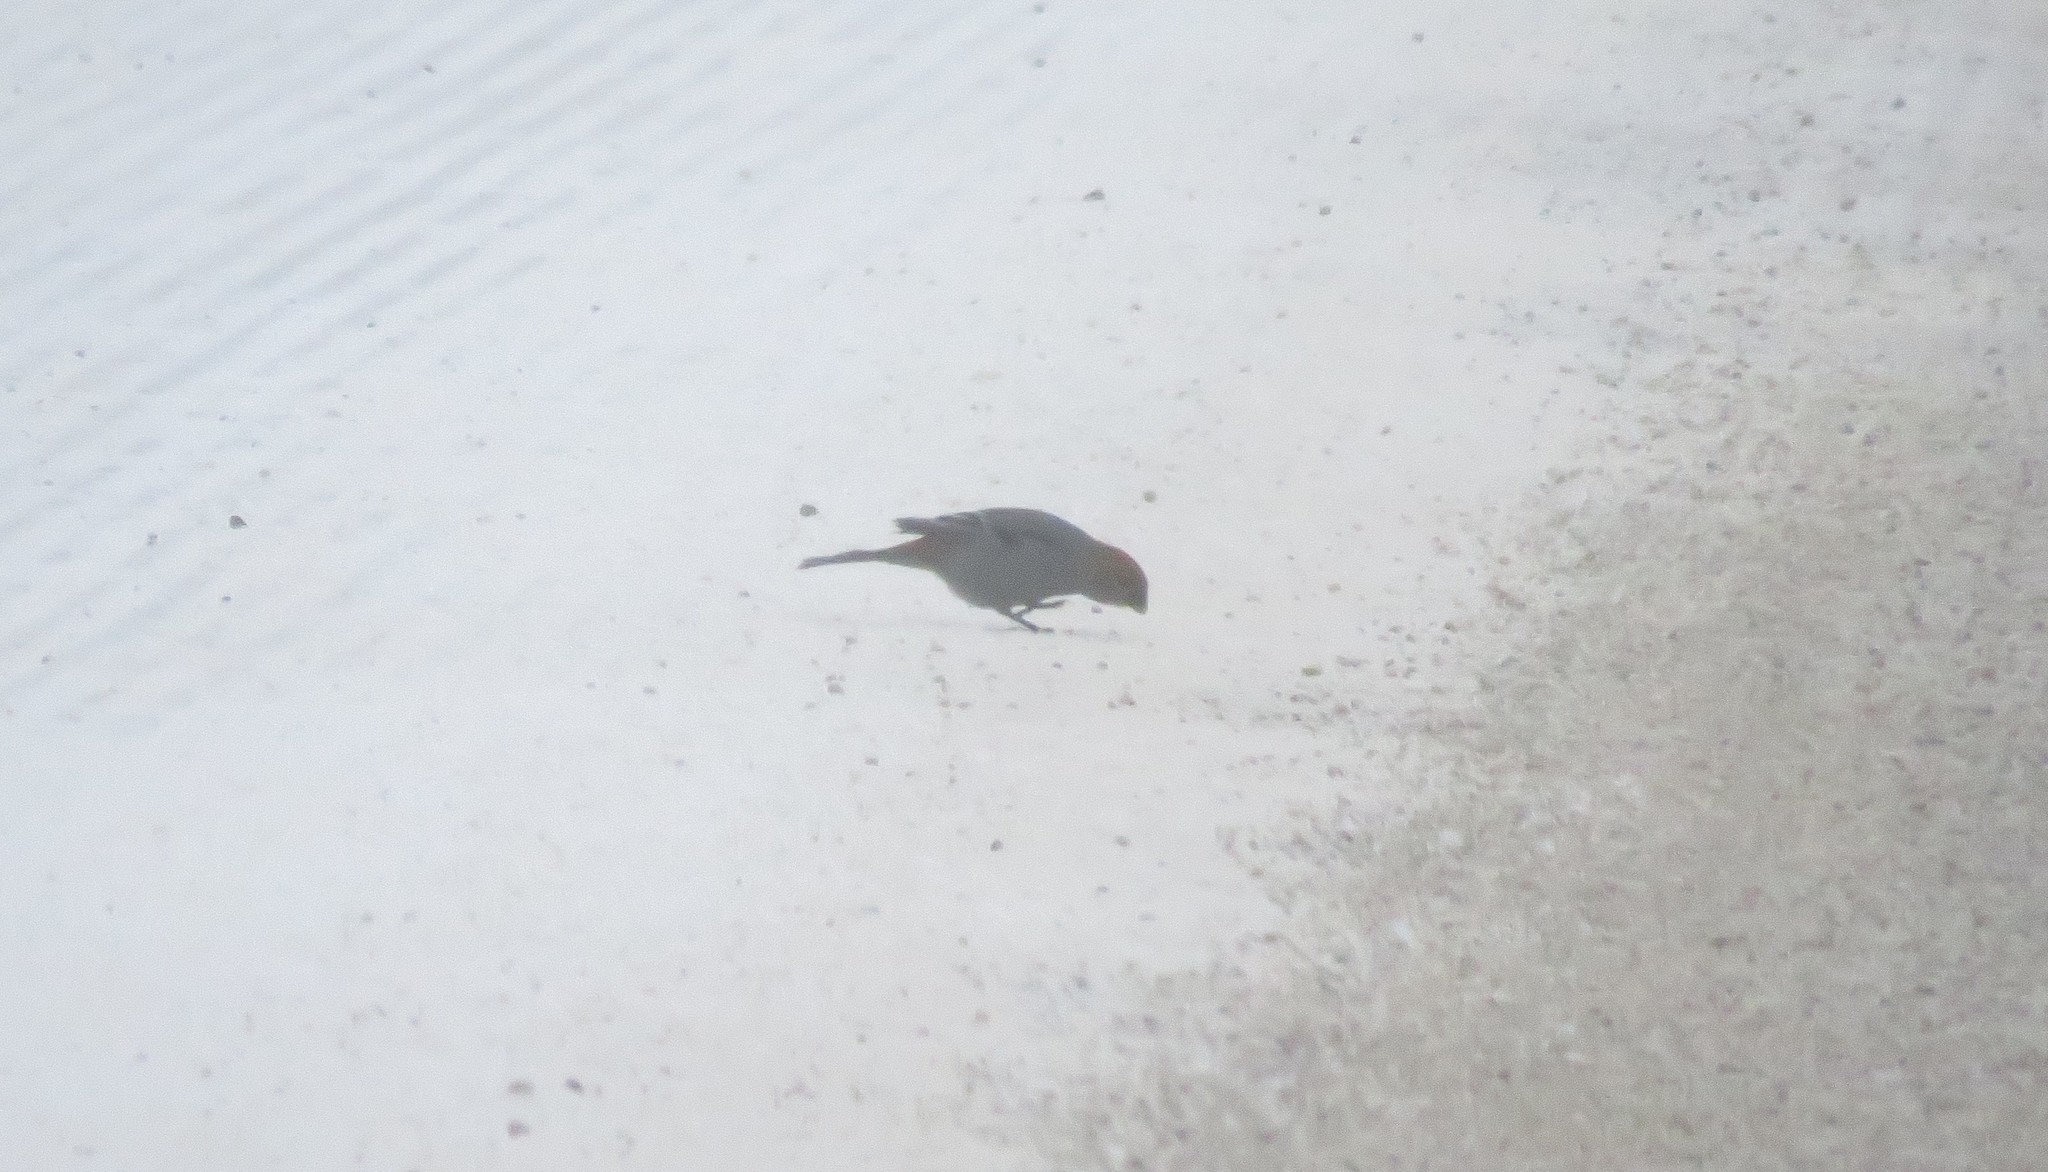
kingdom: Animalia
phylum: Chordata
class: Aves
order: Passeriformes
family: Fringillidae
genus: Pinicola
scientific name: Pinicola enucleator
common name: Pine grosbeak
